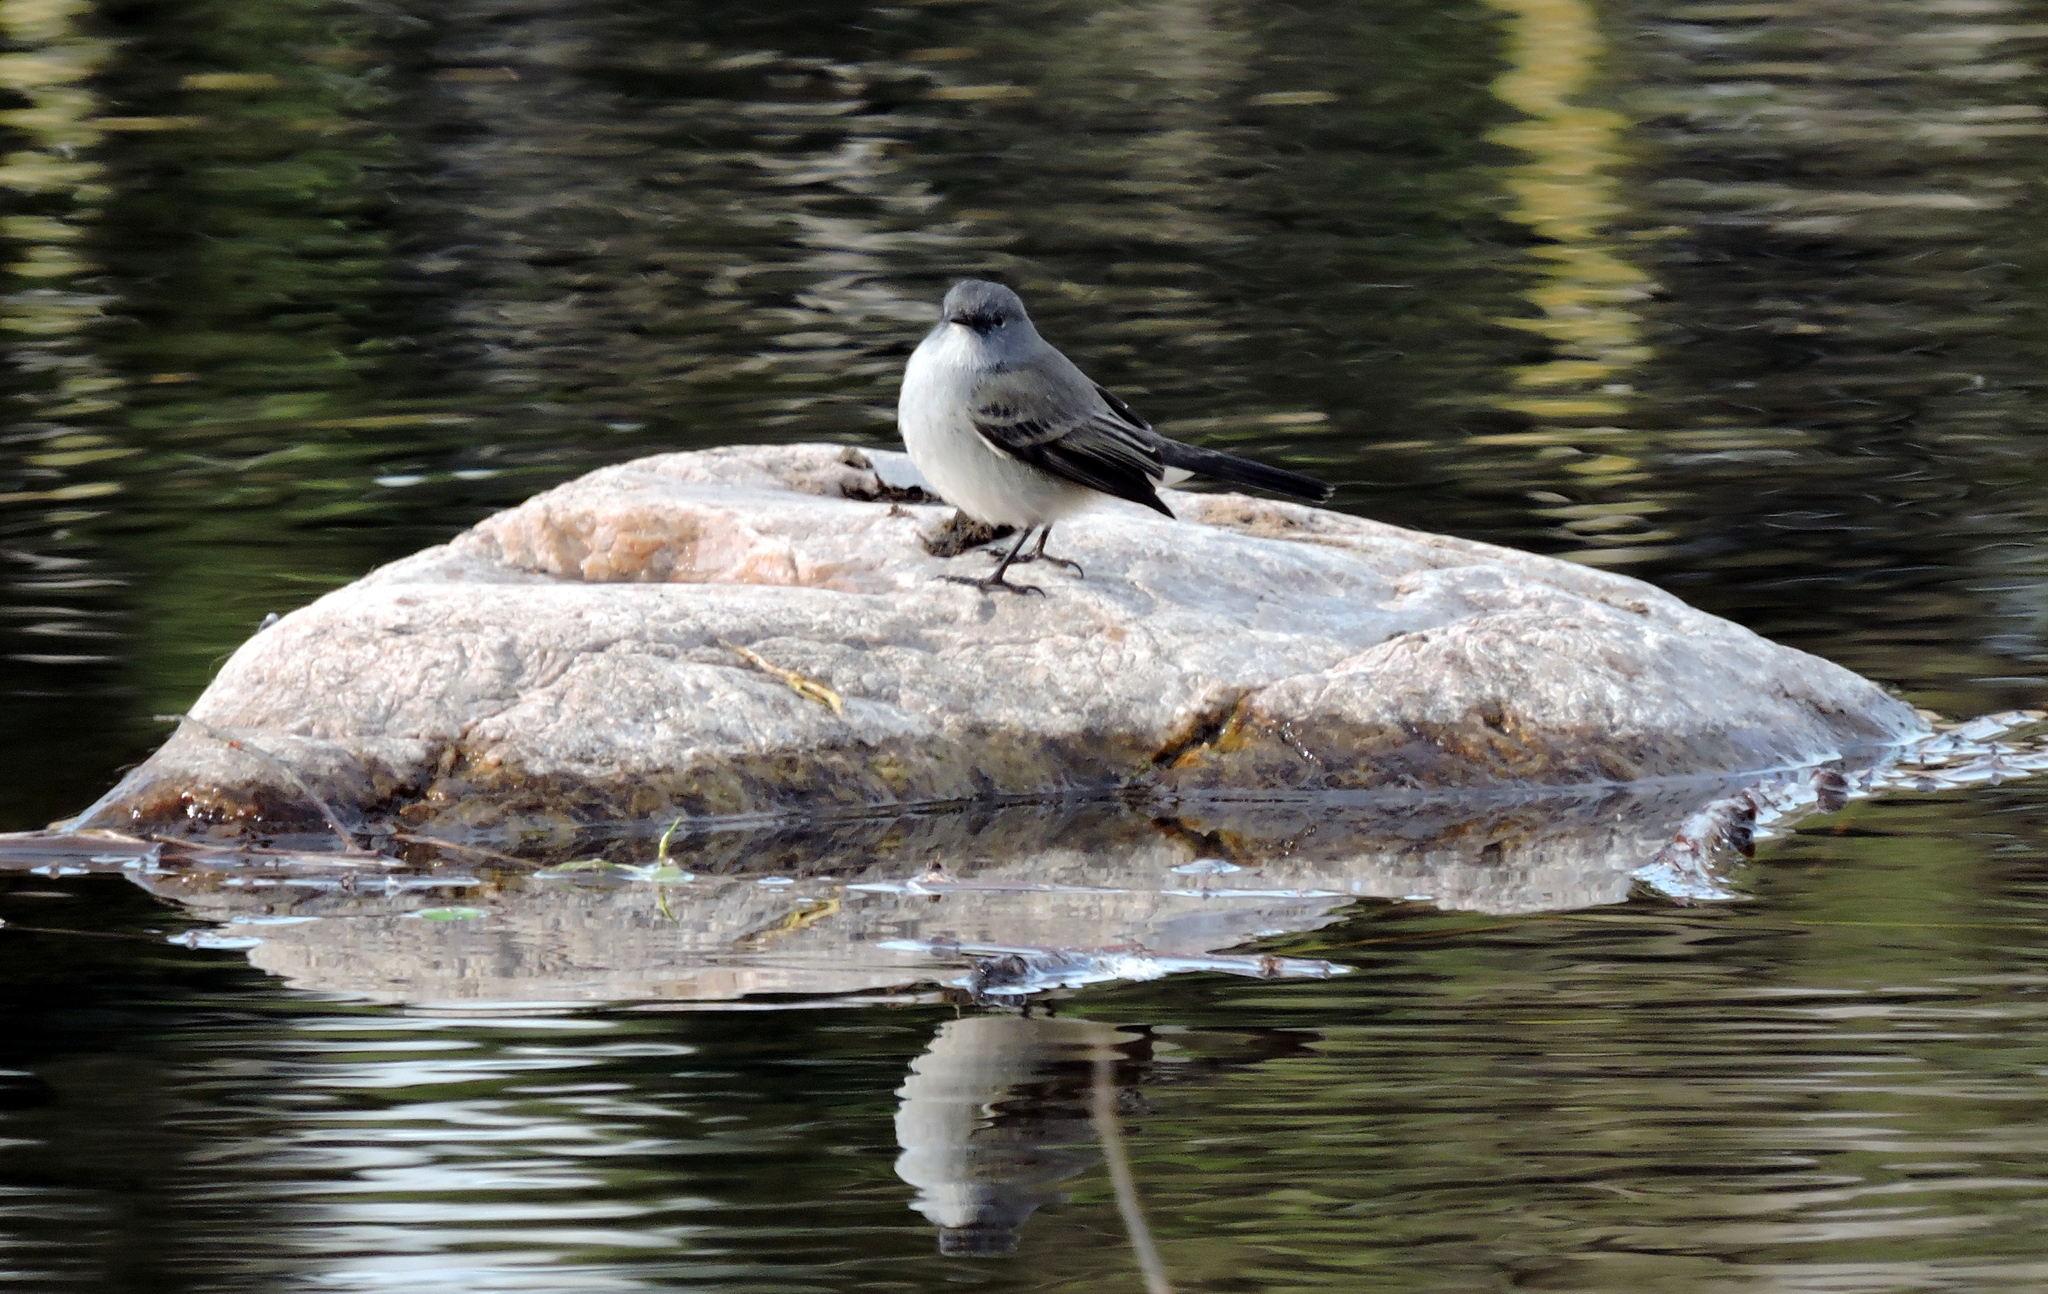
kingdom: Animalia
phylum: Chordata
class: Aves
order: Passeriformes
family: Tyrannidae
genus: Serpophaga
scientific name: Serpophaga nigricans
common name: Sooty tyrannulet
